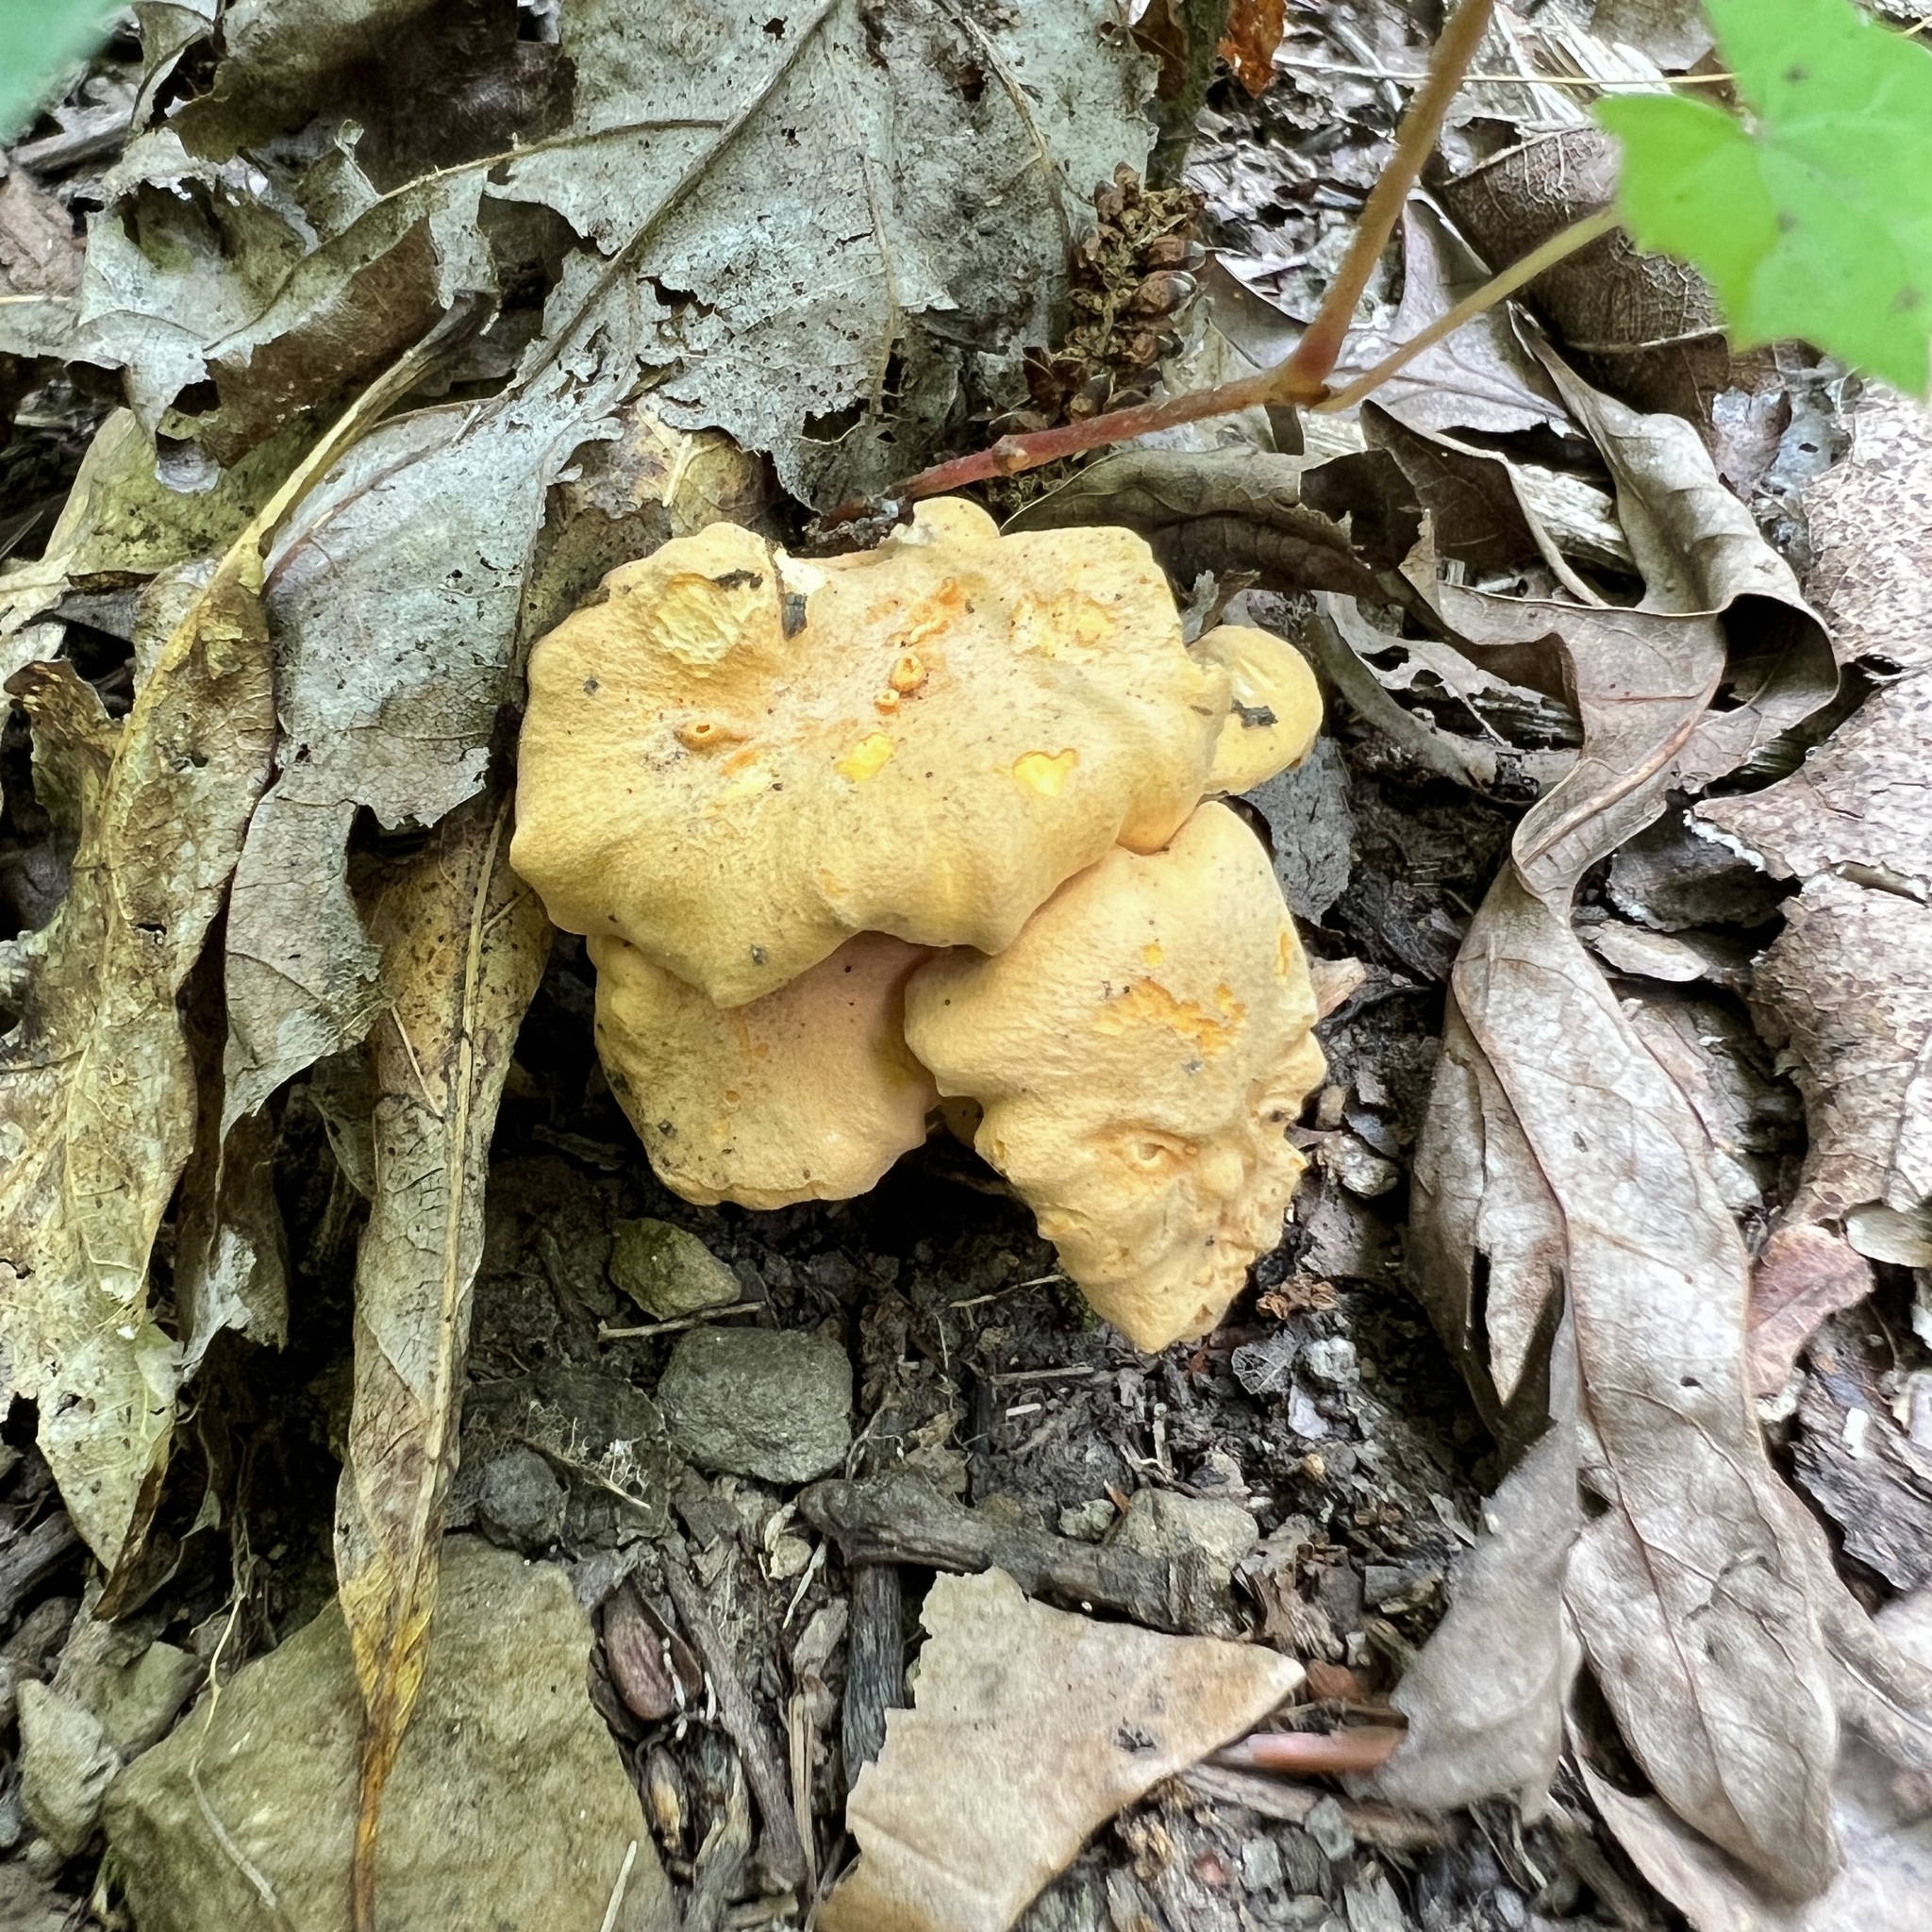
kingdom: Fungi
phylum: Basidiomycota
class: Agaricomycetes
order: Cantharellales
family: Hydnaceae
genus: Cantharellus
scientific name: Cantharellus lateritius
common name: Smooth chanterelle
